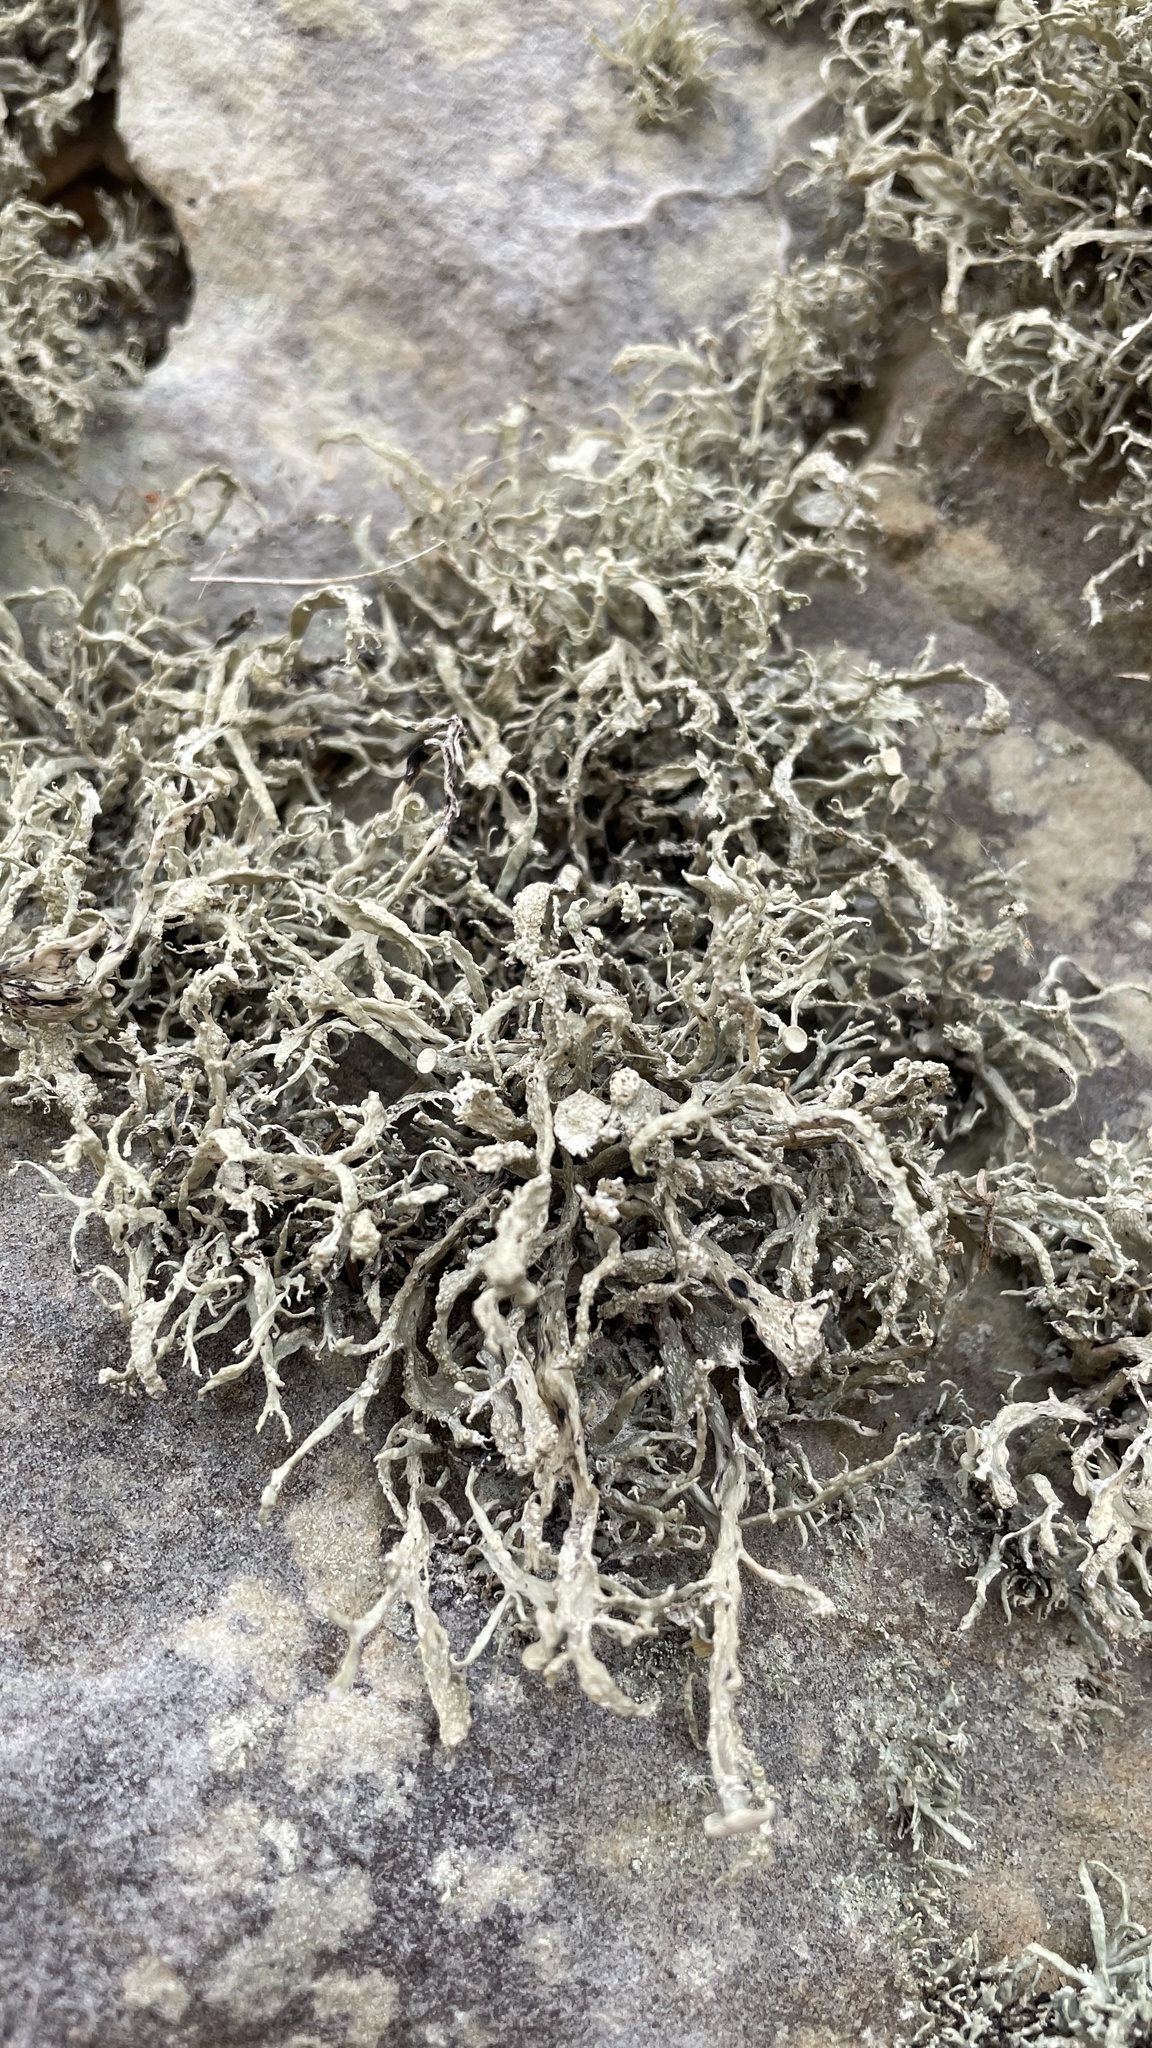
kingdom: Fungi
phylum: Ascomycota
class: Lecanoromycetes
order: Lecanorales
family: Ramalinaceae
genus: Ramalina
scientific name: Ramalina siliquosa
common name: Sea ivory
